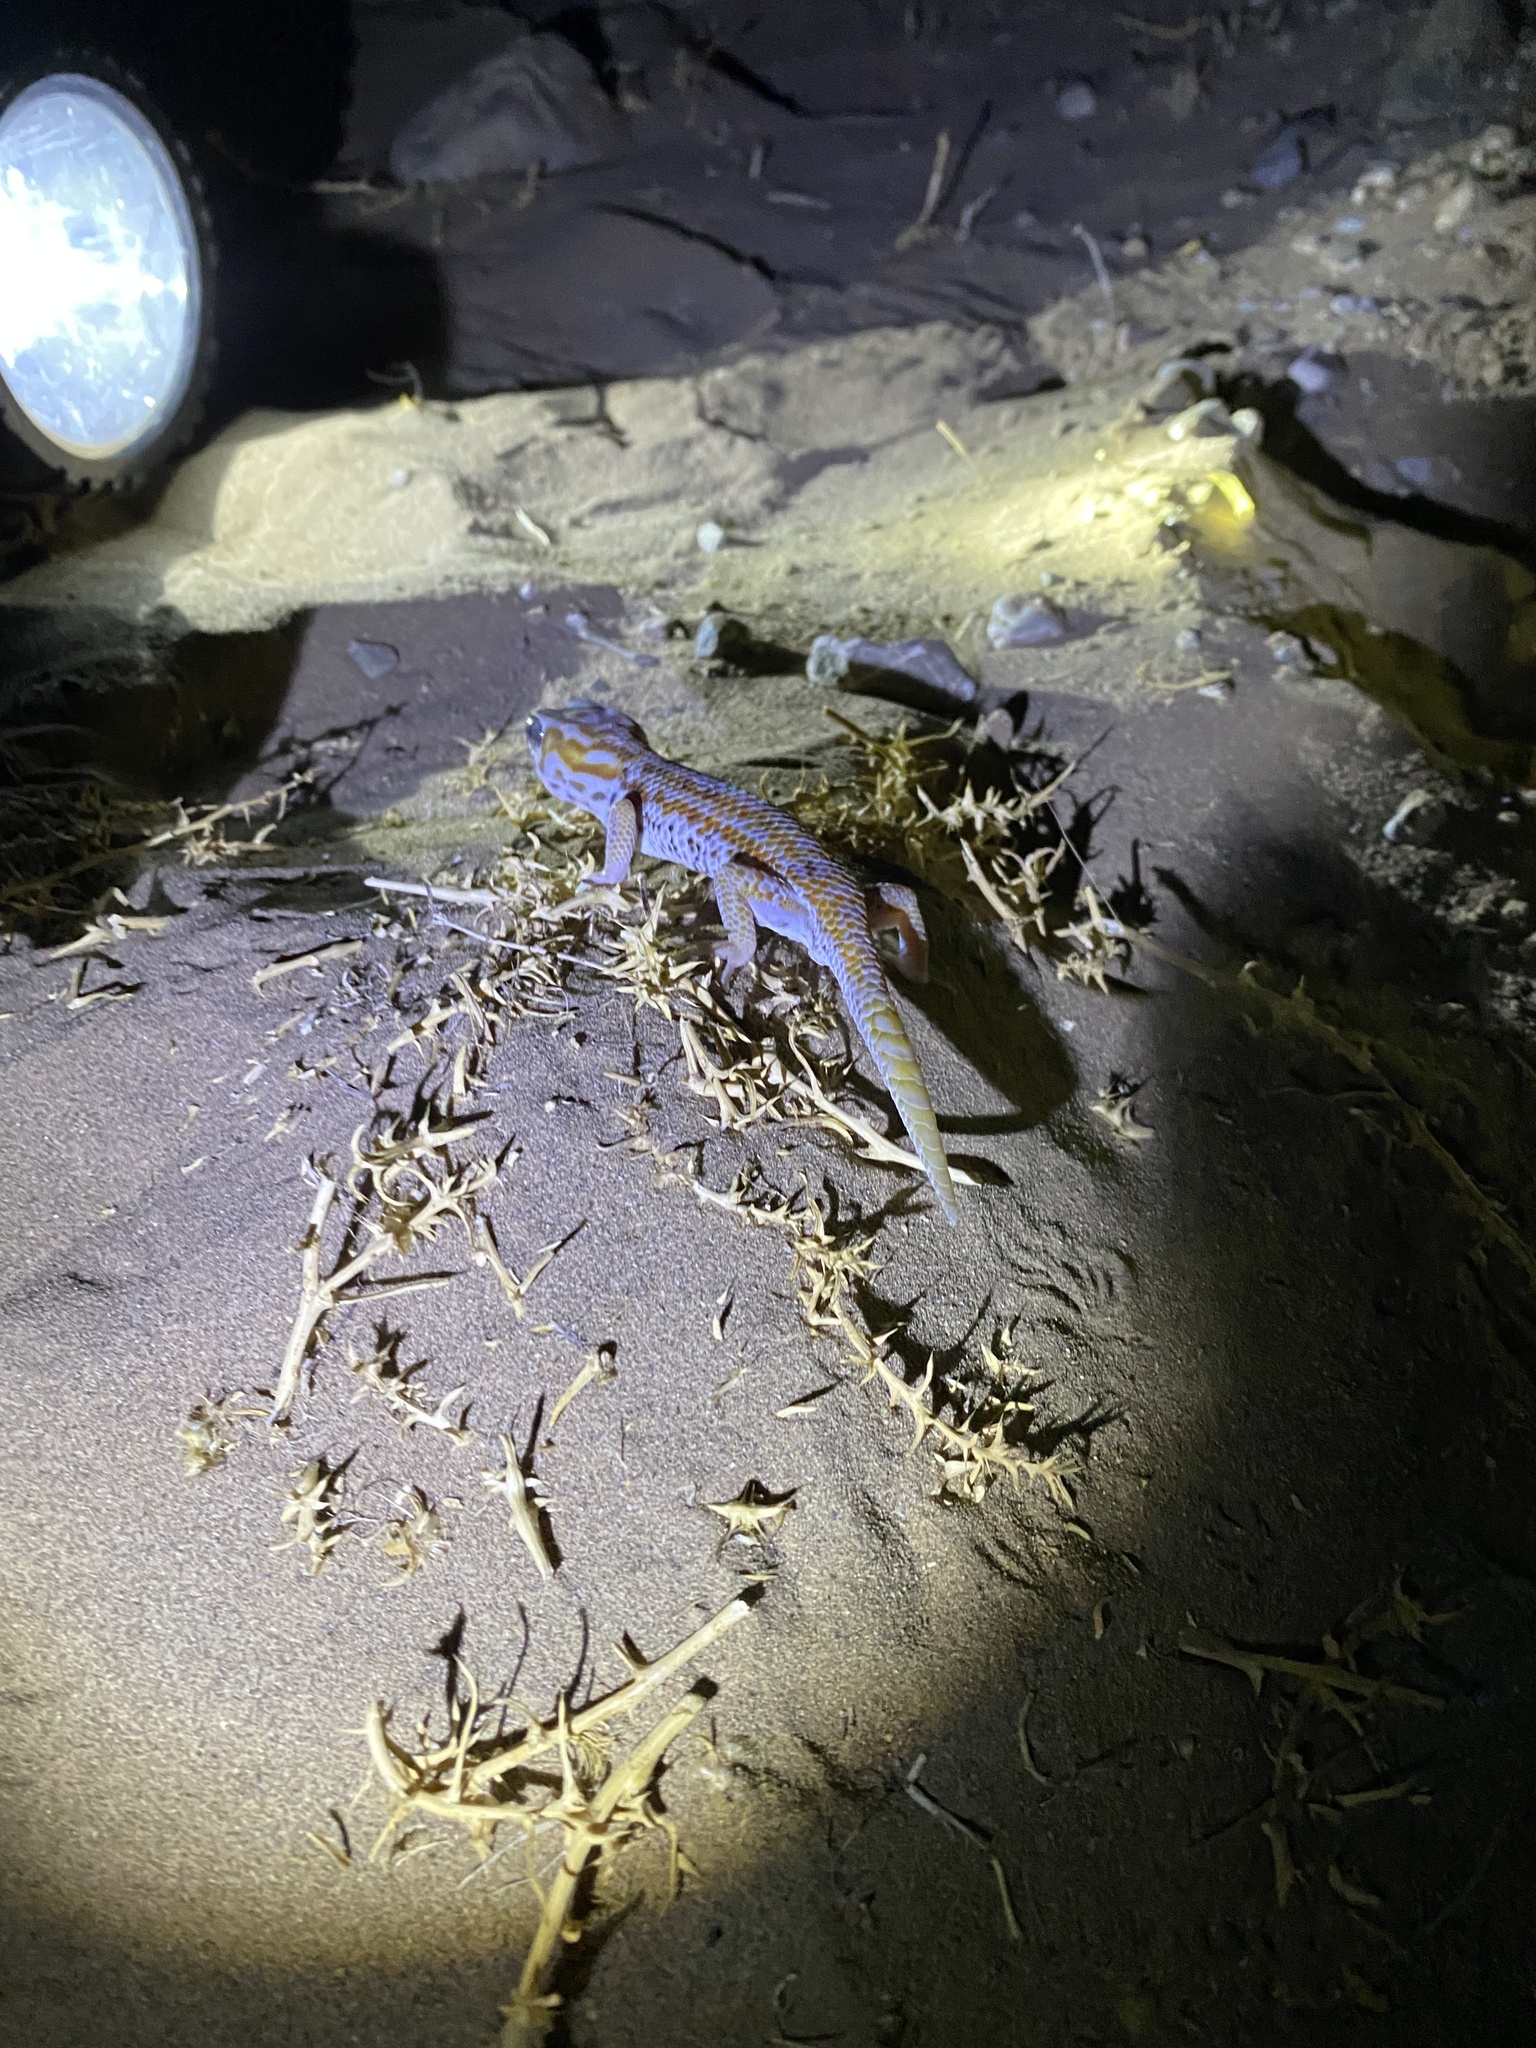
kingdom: Animalia
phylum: Chordata
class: Squamata
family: Sphaerodactylidae
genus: Teratoscincus
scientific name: Teratoscincus keyserlingii
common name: Frog-eyed gecko
